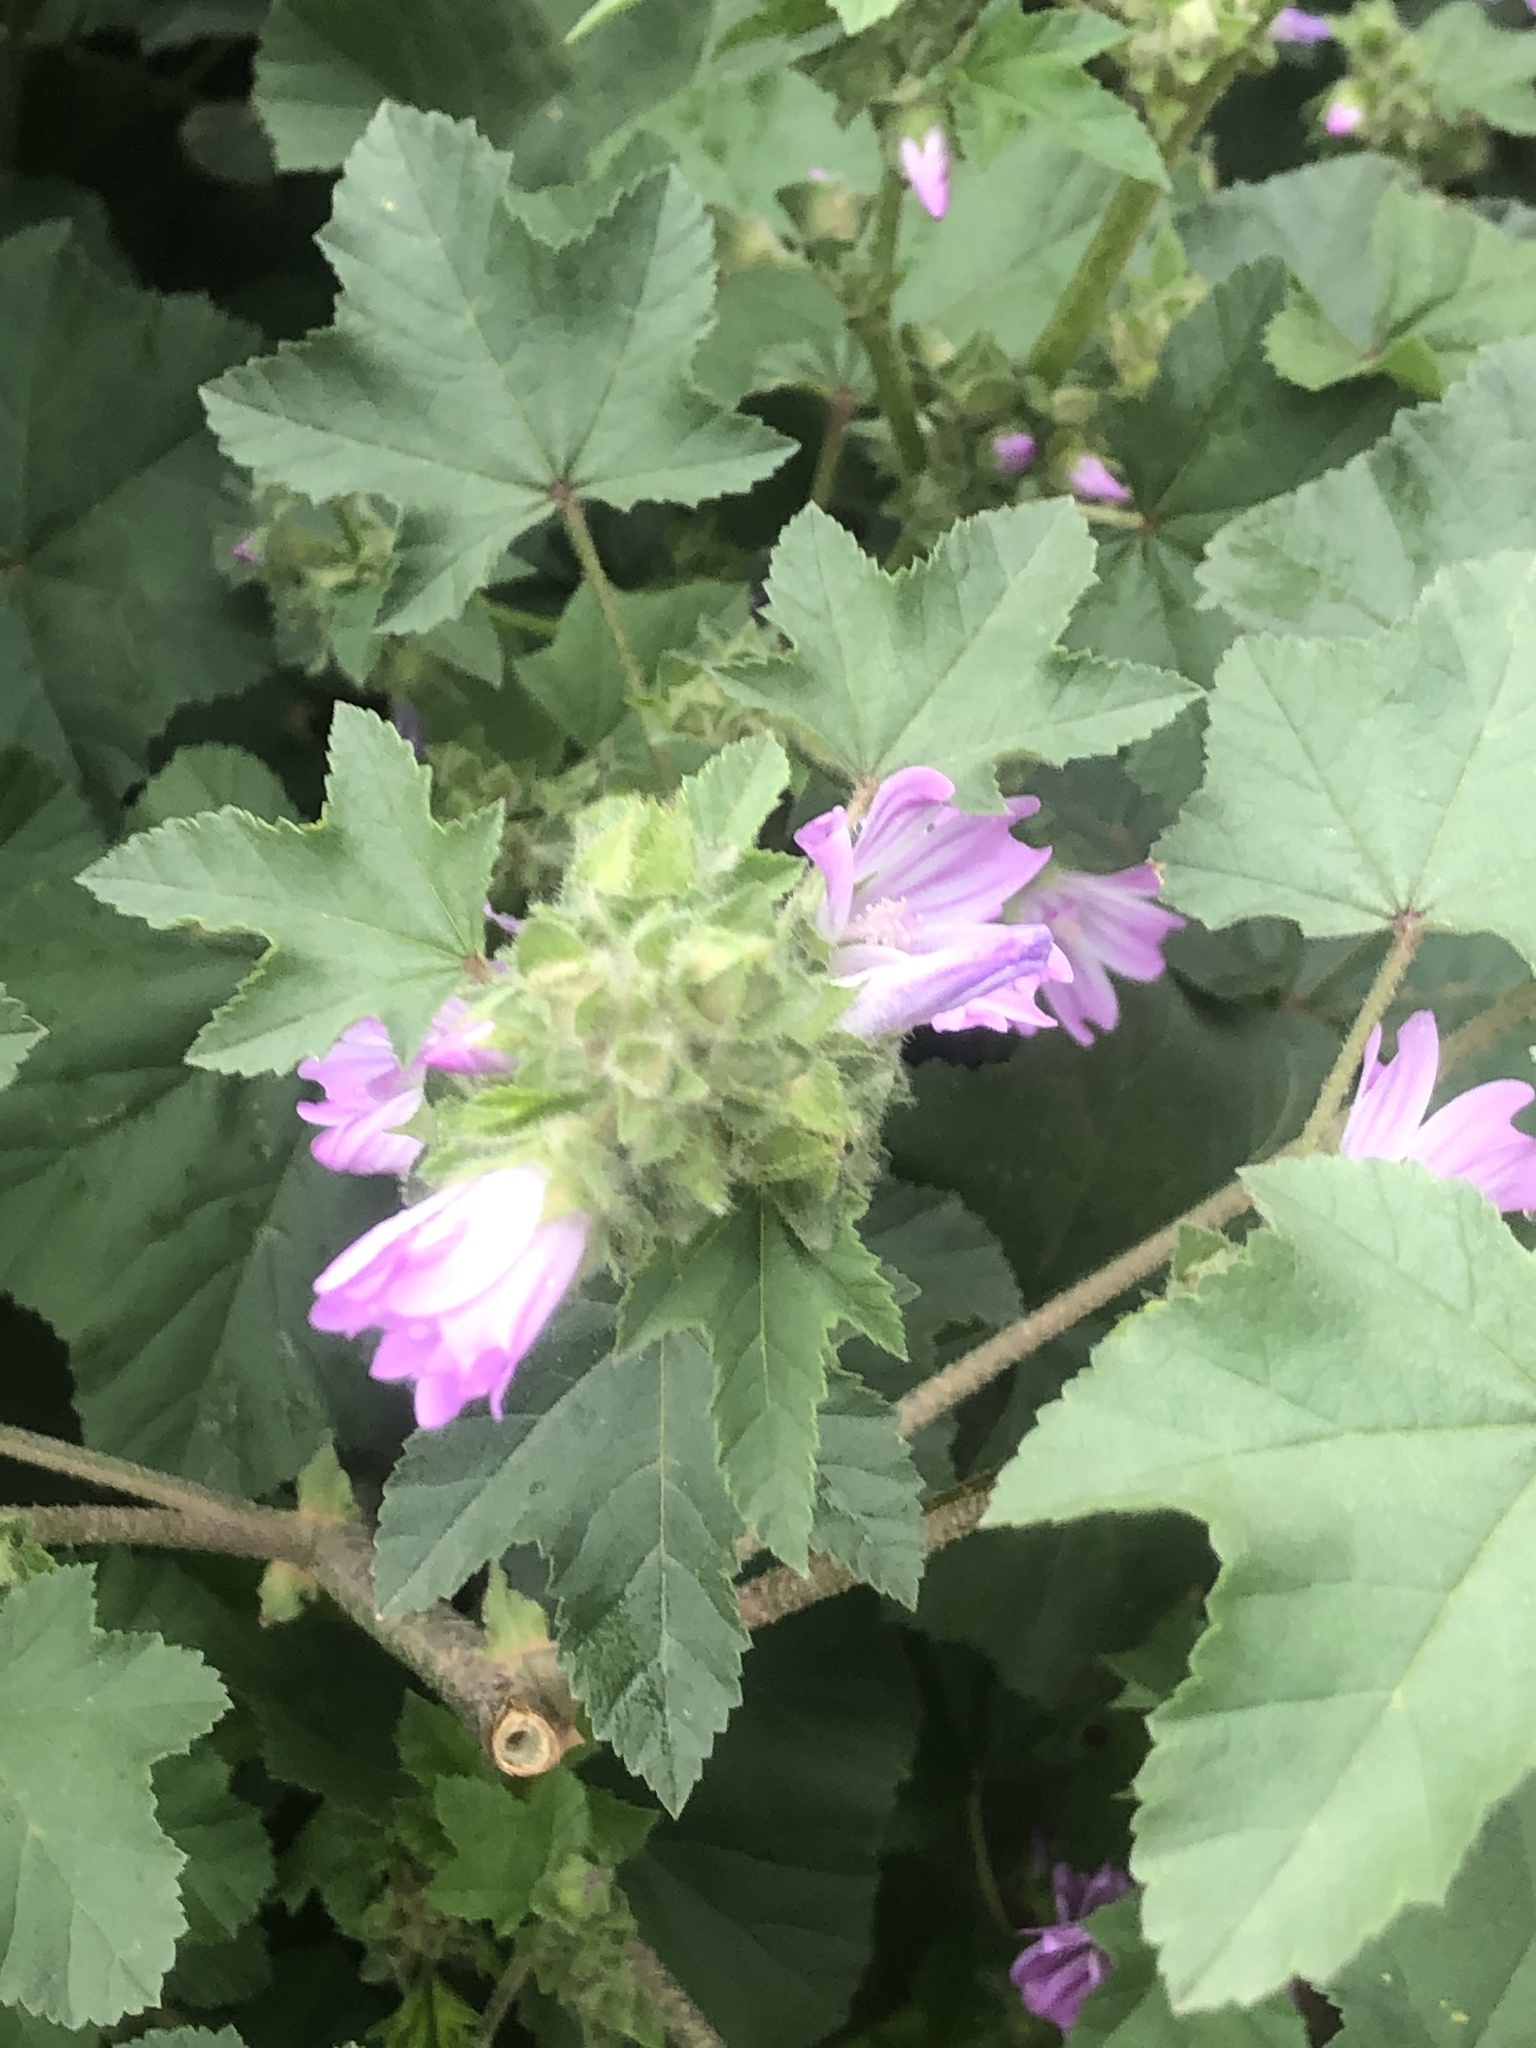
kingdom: Plantae
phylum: Tracheophyta
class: Magnoliopsida
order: Malvales
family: Malvaceae
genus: Malva
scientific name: Malva multiflora
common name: Cheeseweed
